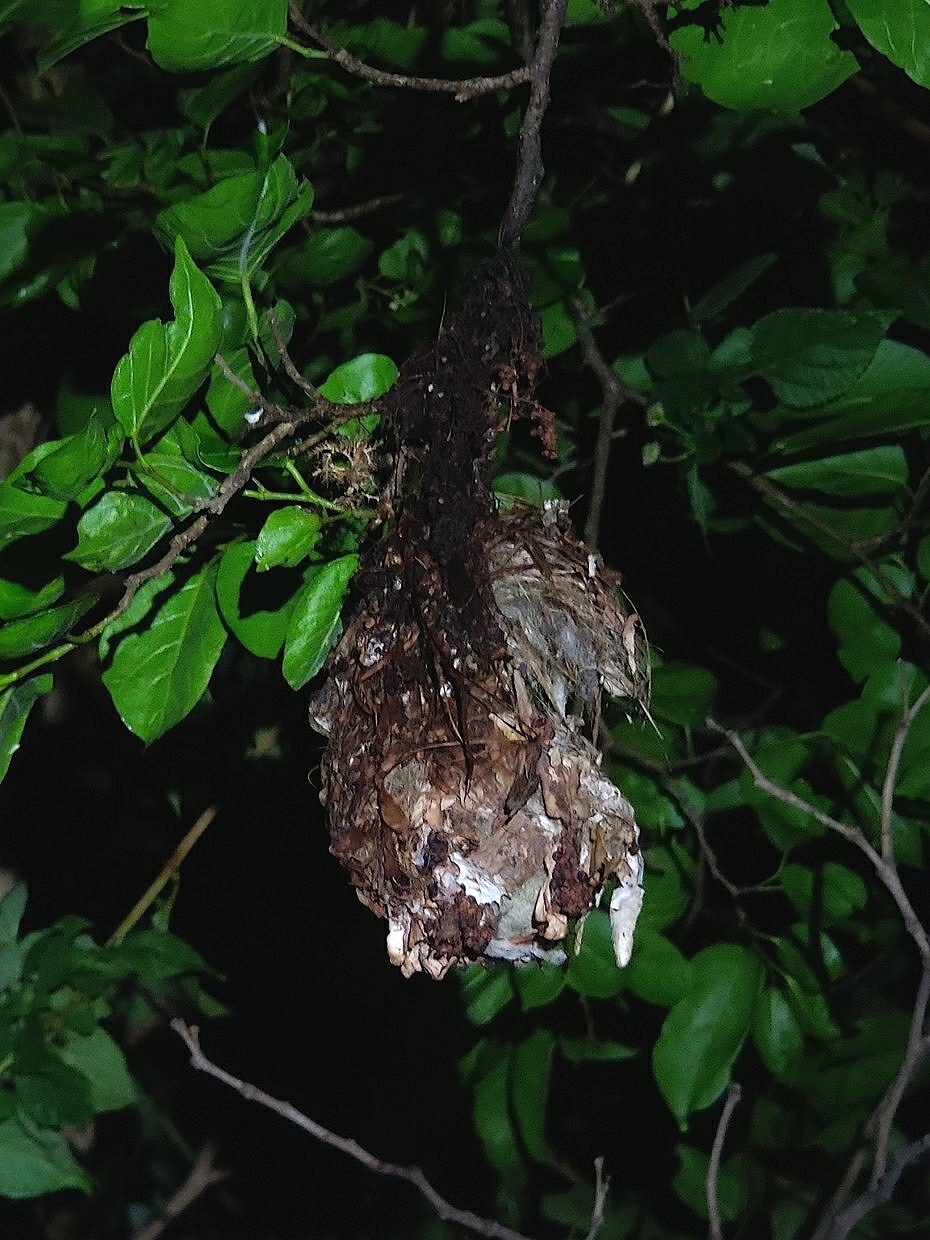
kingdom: Animalia
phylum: Chordata
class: Aves
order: Passeriformes
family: Nectariniidae
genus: Leptocoma
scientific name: Leptocoma zeylonica
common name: Purple-rumped sunbird
